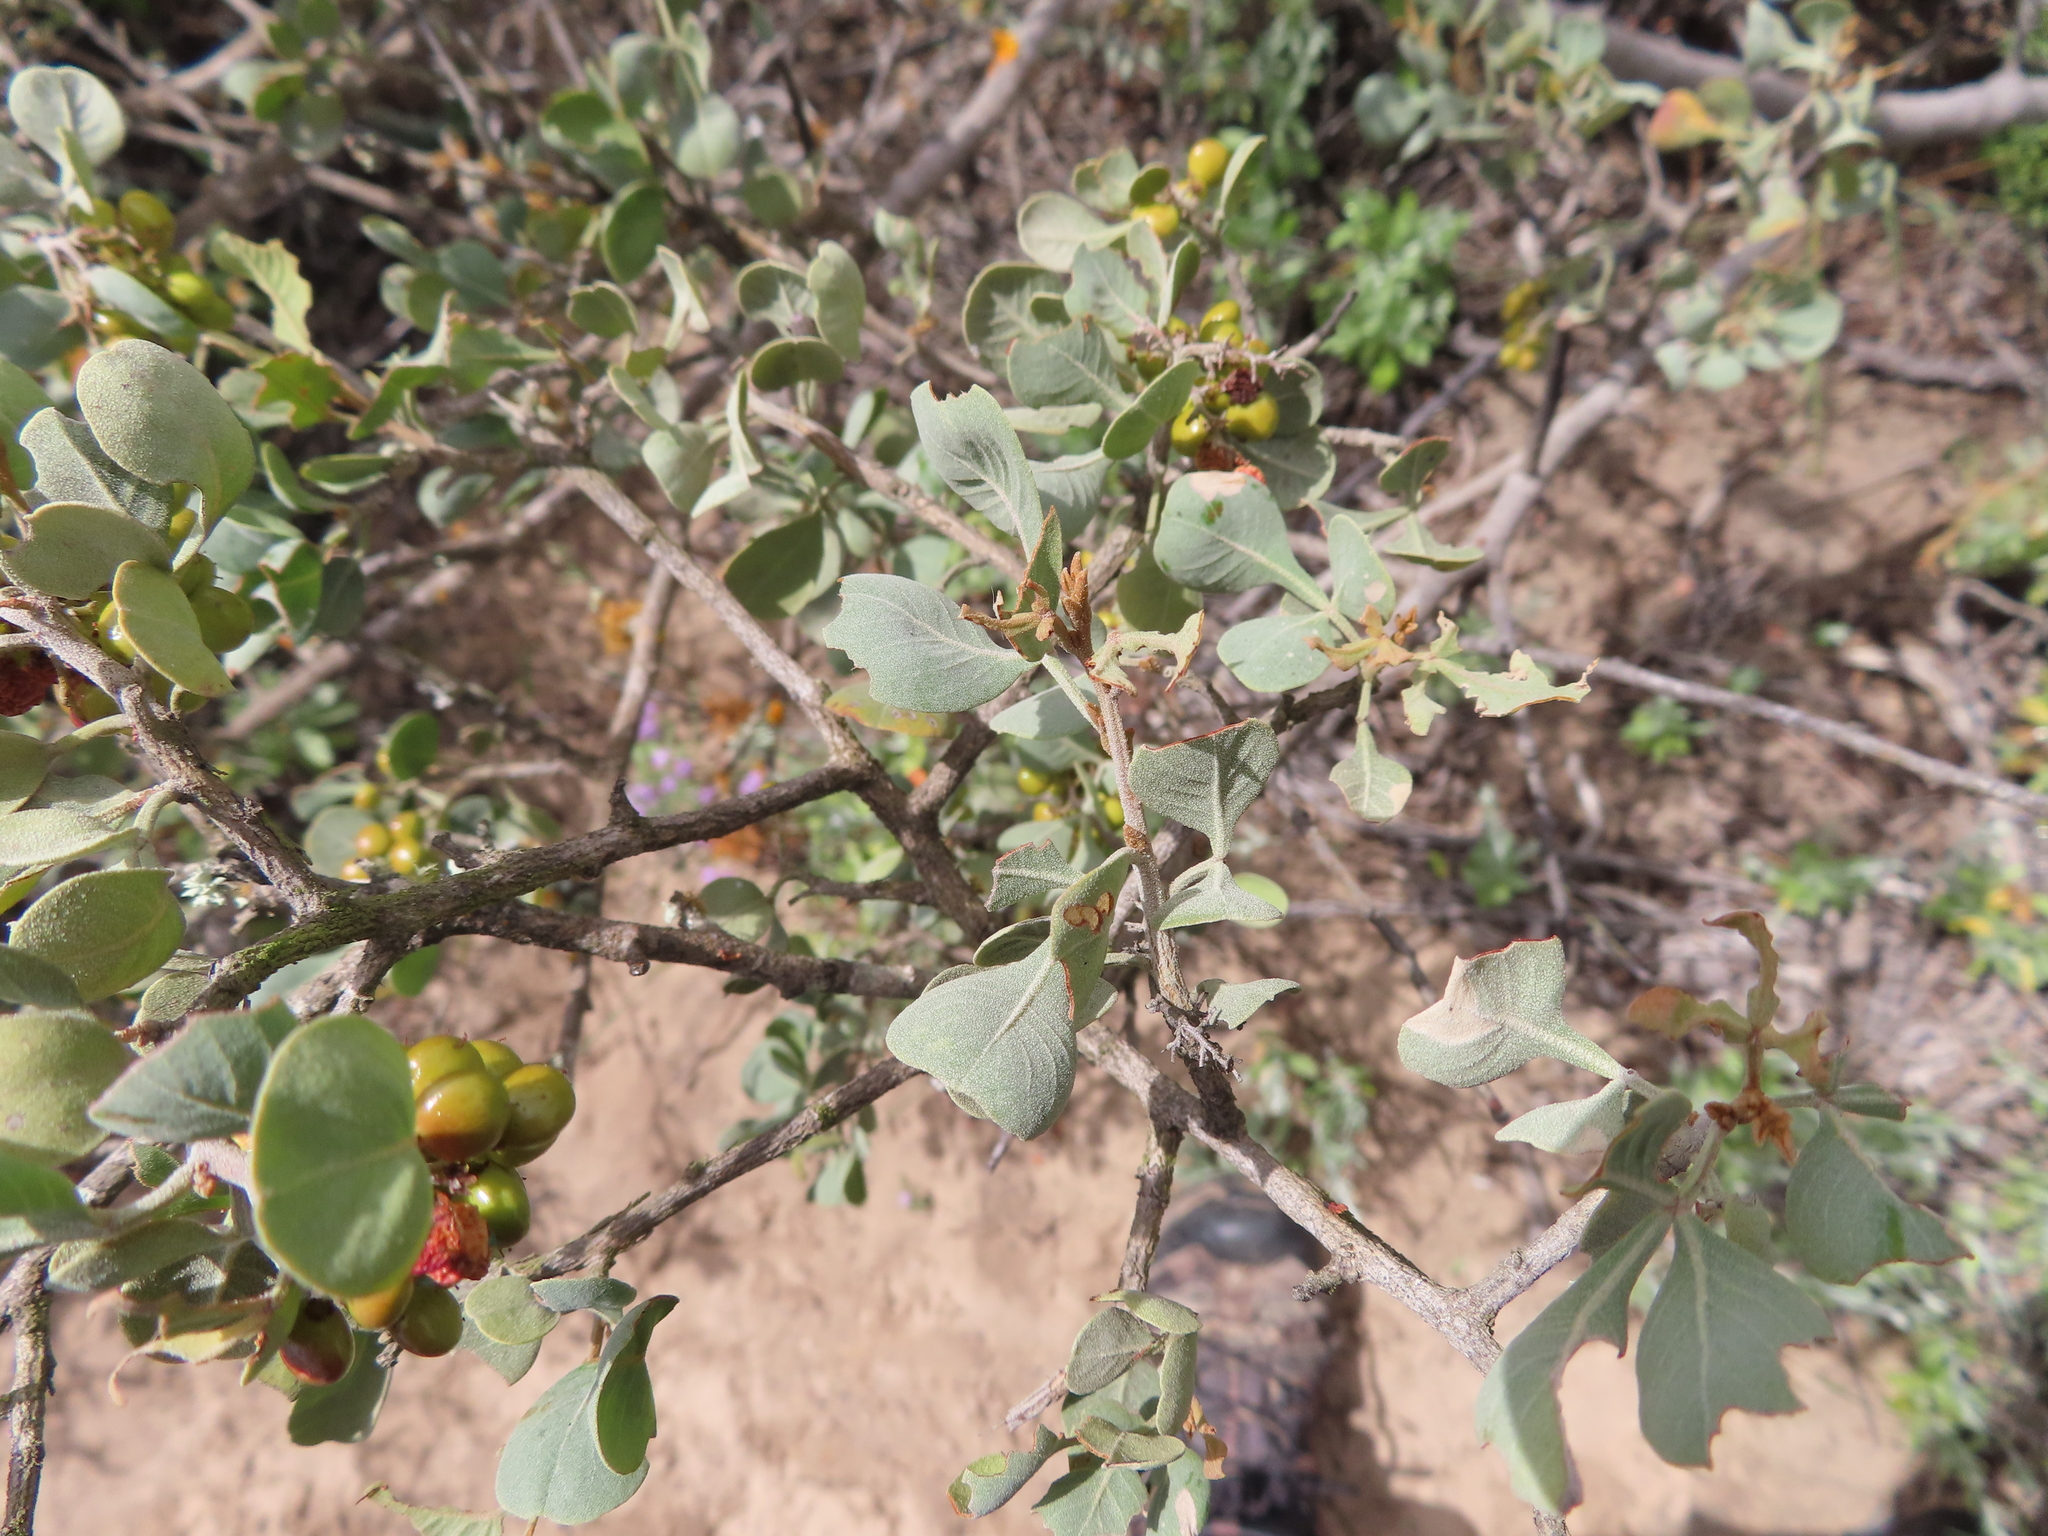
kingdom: Plantae
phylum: Tracheophyta
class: Magnoliopsida
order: Sapindales
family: Anacardiaceae
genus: Searsia
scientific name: Searsia glauca
